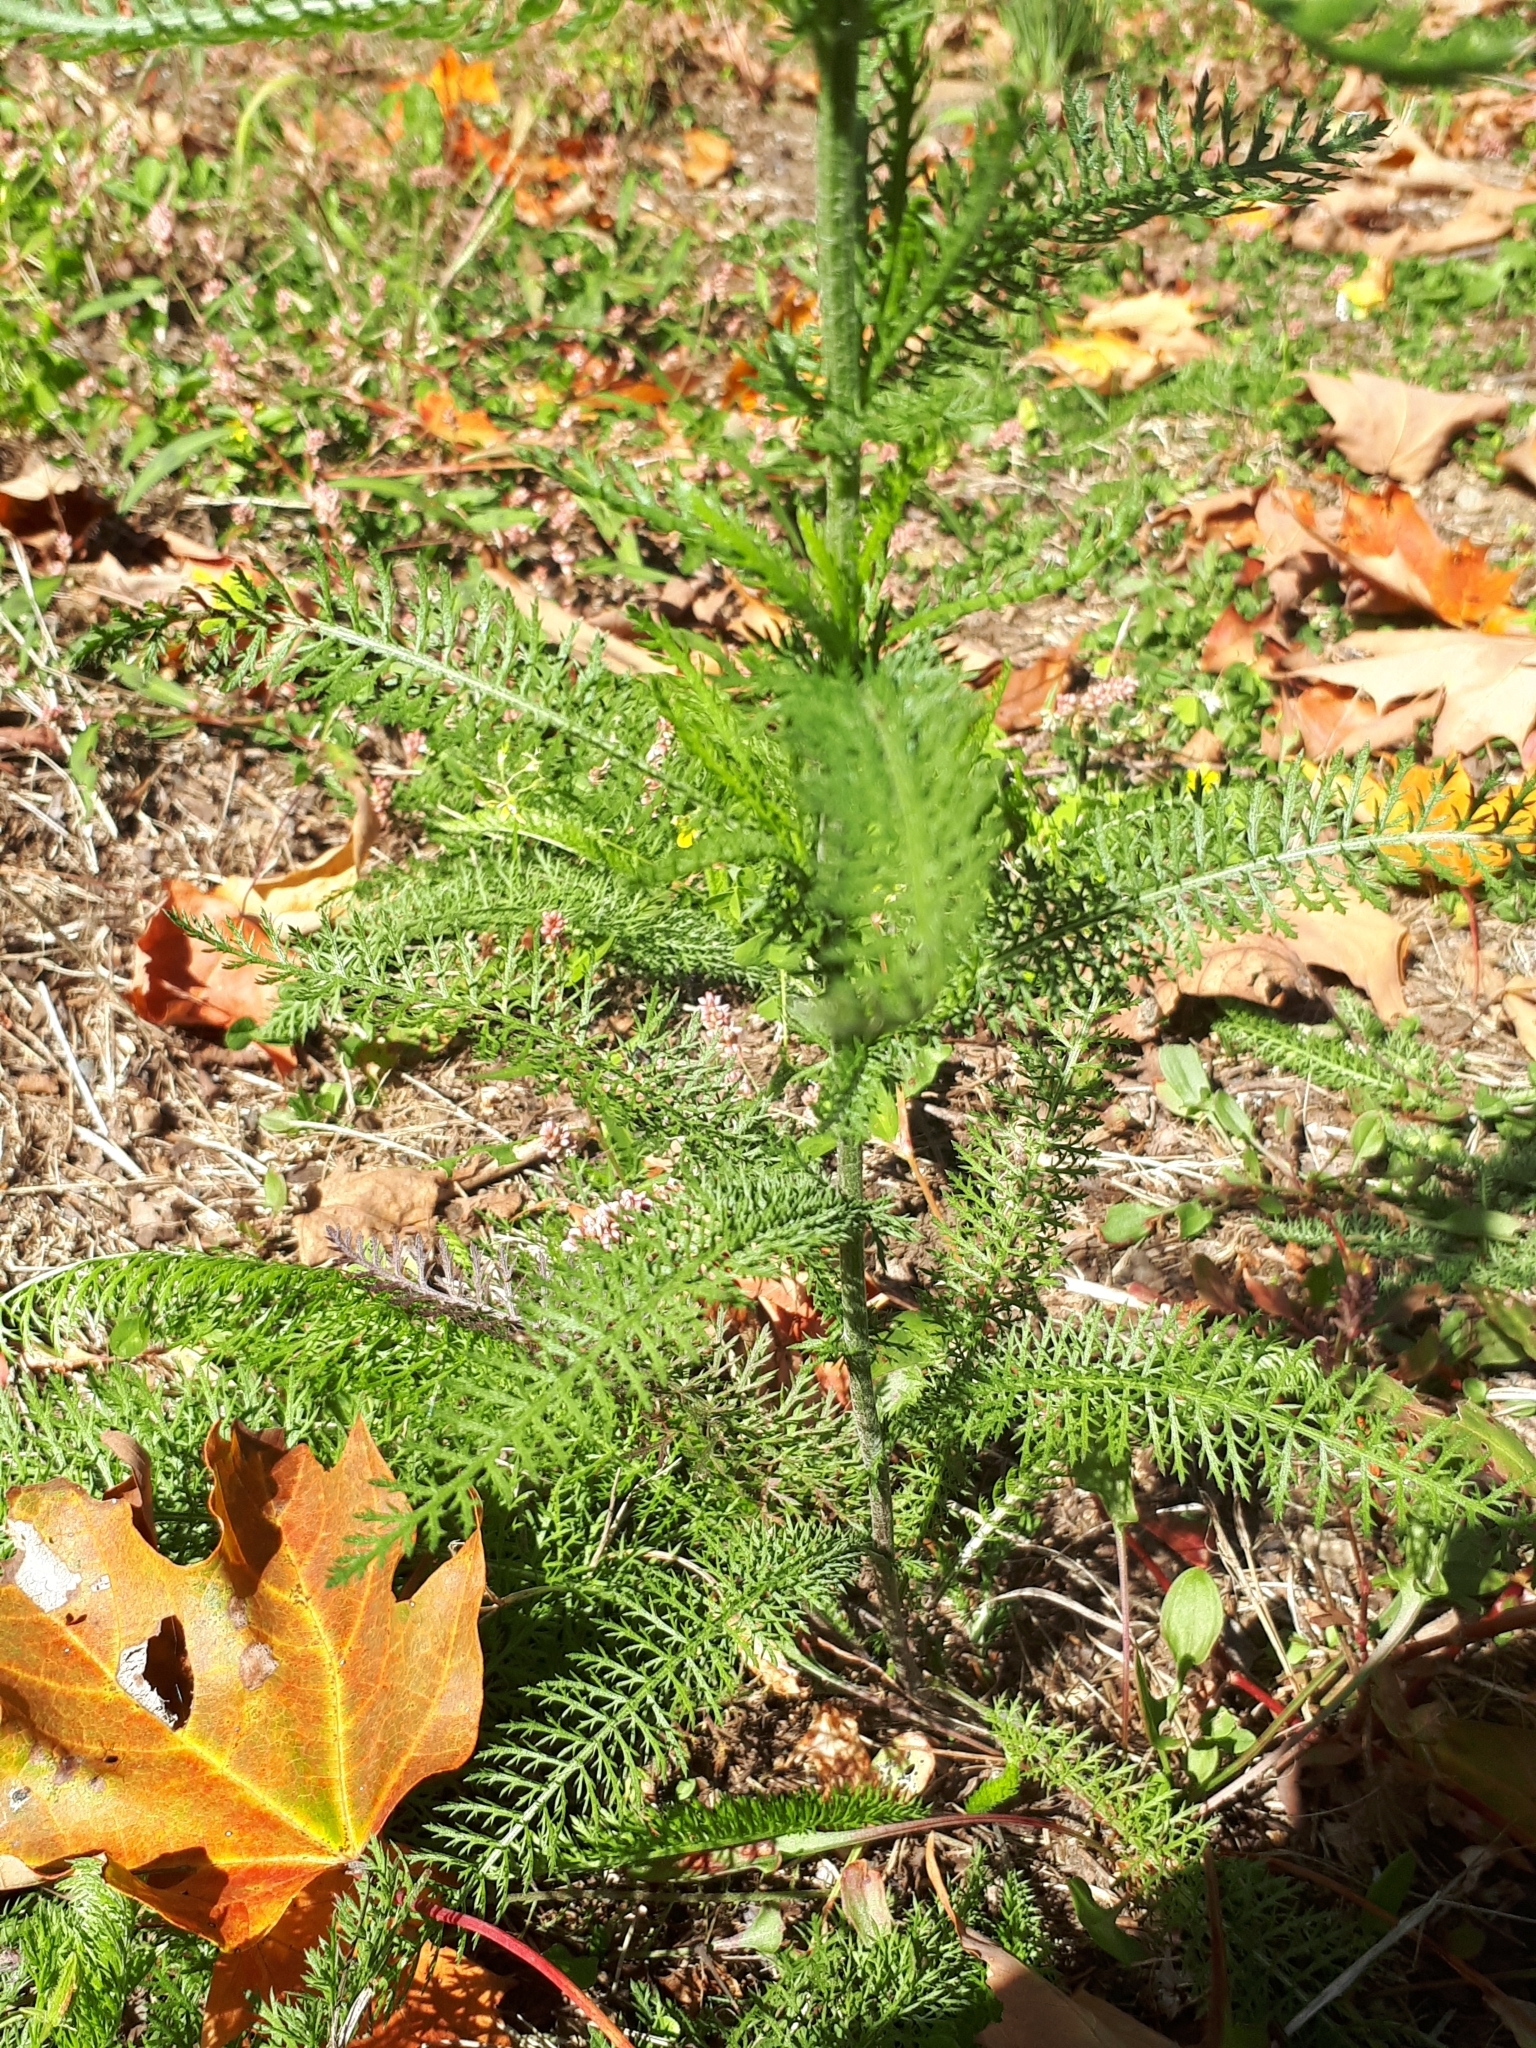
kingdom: Plantae
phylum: Tracheophyta
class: Magnoliopsida
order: Asterales
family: Asteraceae
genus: Achillea
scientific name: Achillea millefolium
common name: Yarrow
